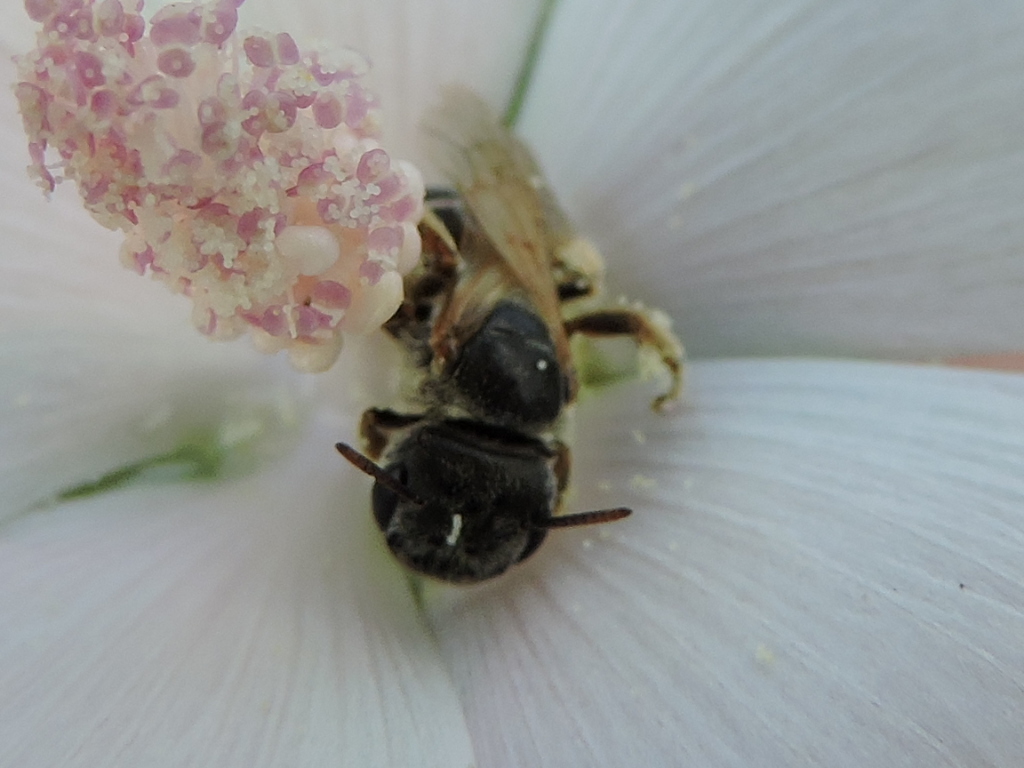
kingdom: Animalia
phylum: Arthropoda
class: Insecta
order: Hymenoptera
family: Halictidae
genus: Halictus
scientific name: Halictus ligatus
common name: Ligated furrow bee
